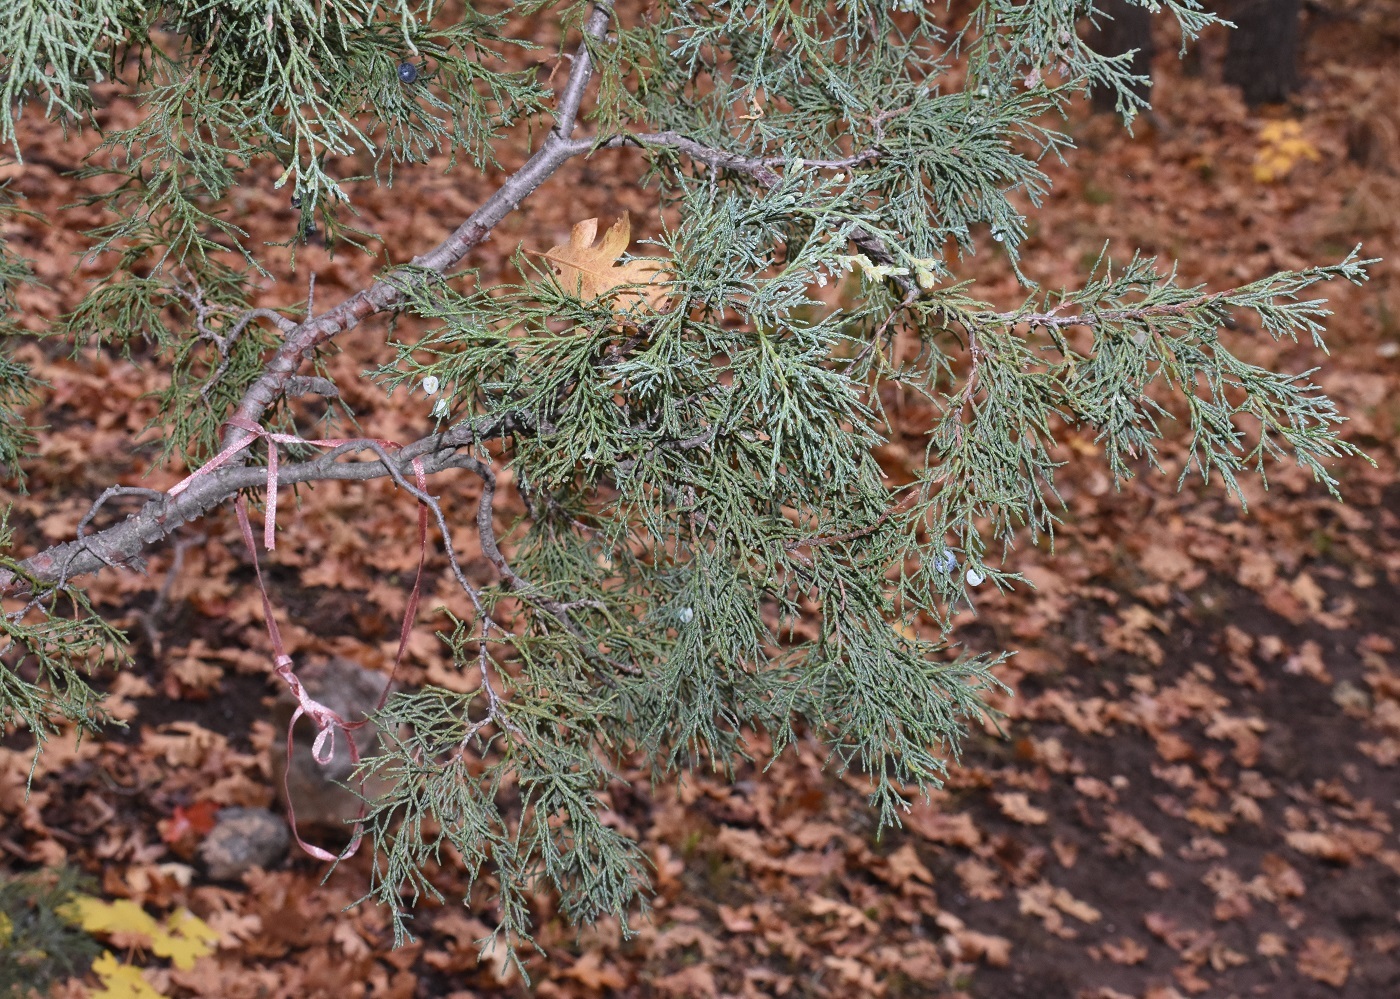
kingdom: Plantae
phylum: Tracheophyta
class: Pinopsida
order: Pinales
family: Cupressaceae
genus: Juniperus
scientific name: Juniperus scopulorum
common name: Rocky mountain juniper
